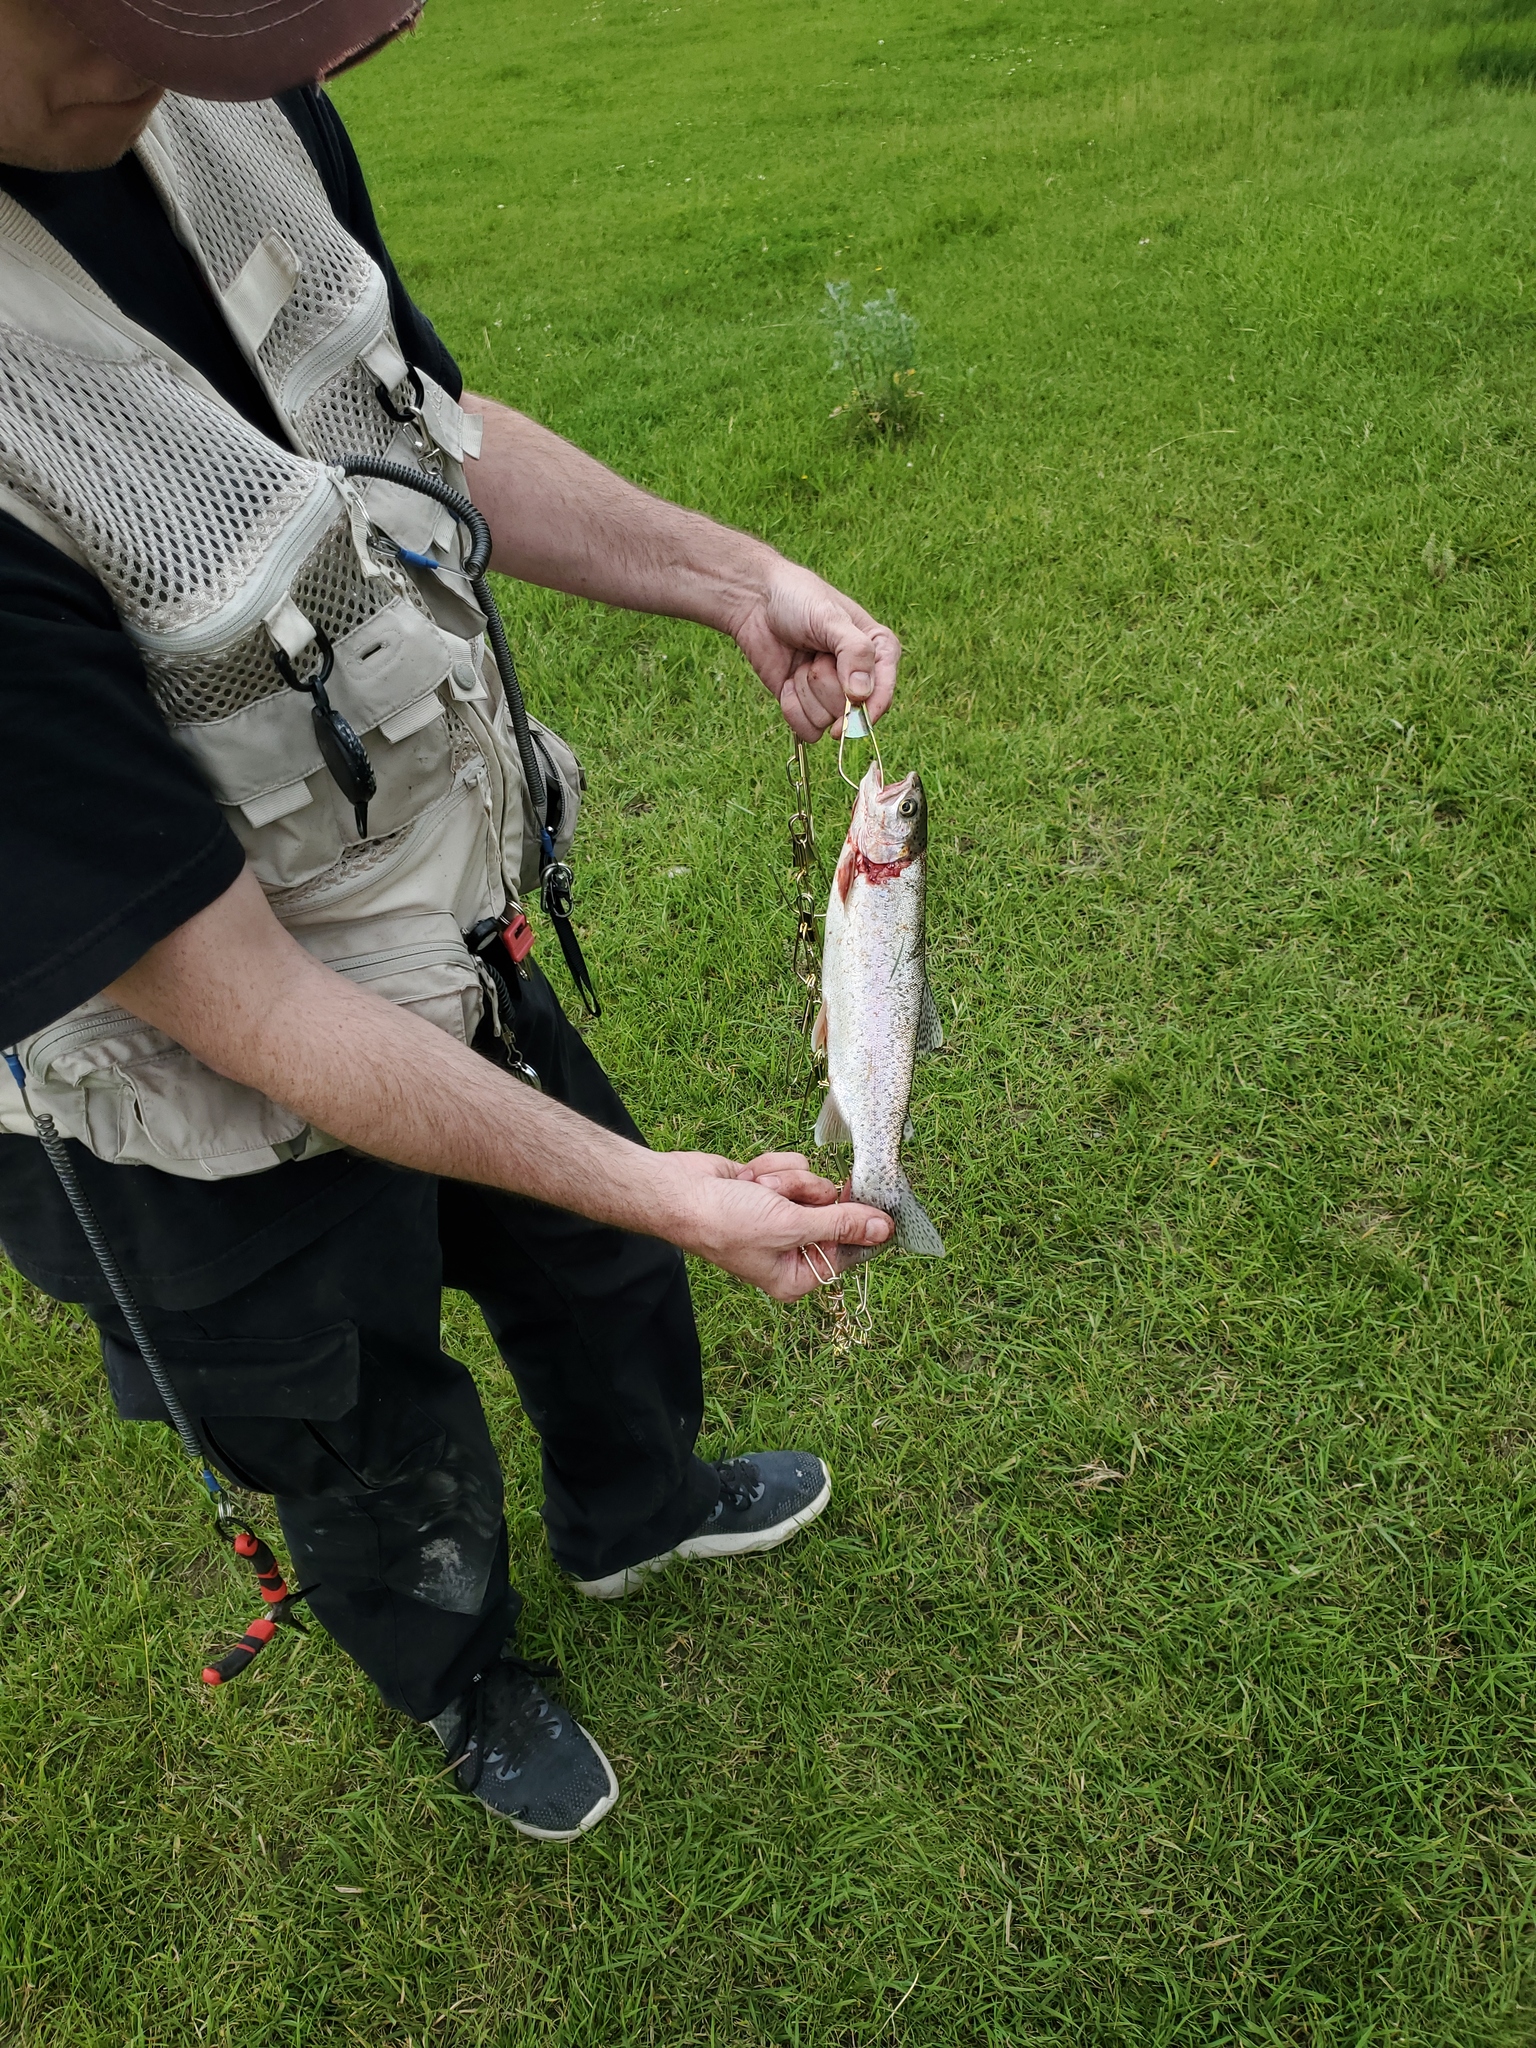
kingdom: Animalia
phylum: Chordata
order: Salmoniformes
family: Salmonidae
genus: Oncorhynchus
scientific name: Oncorhynchus mykiss
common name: Rainbow trout
